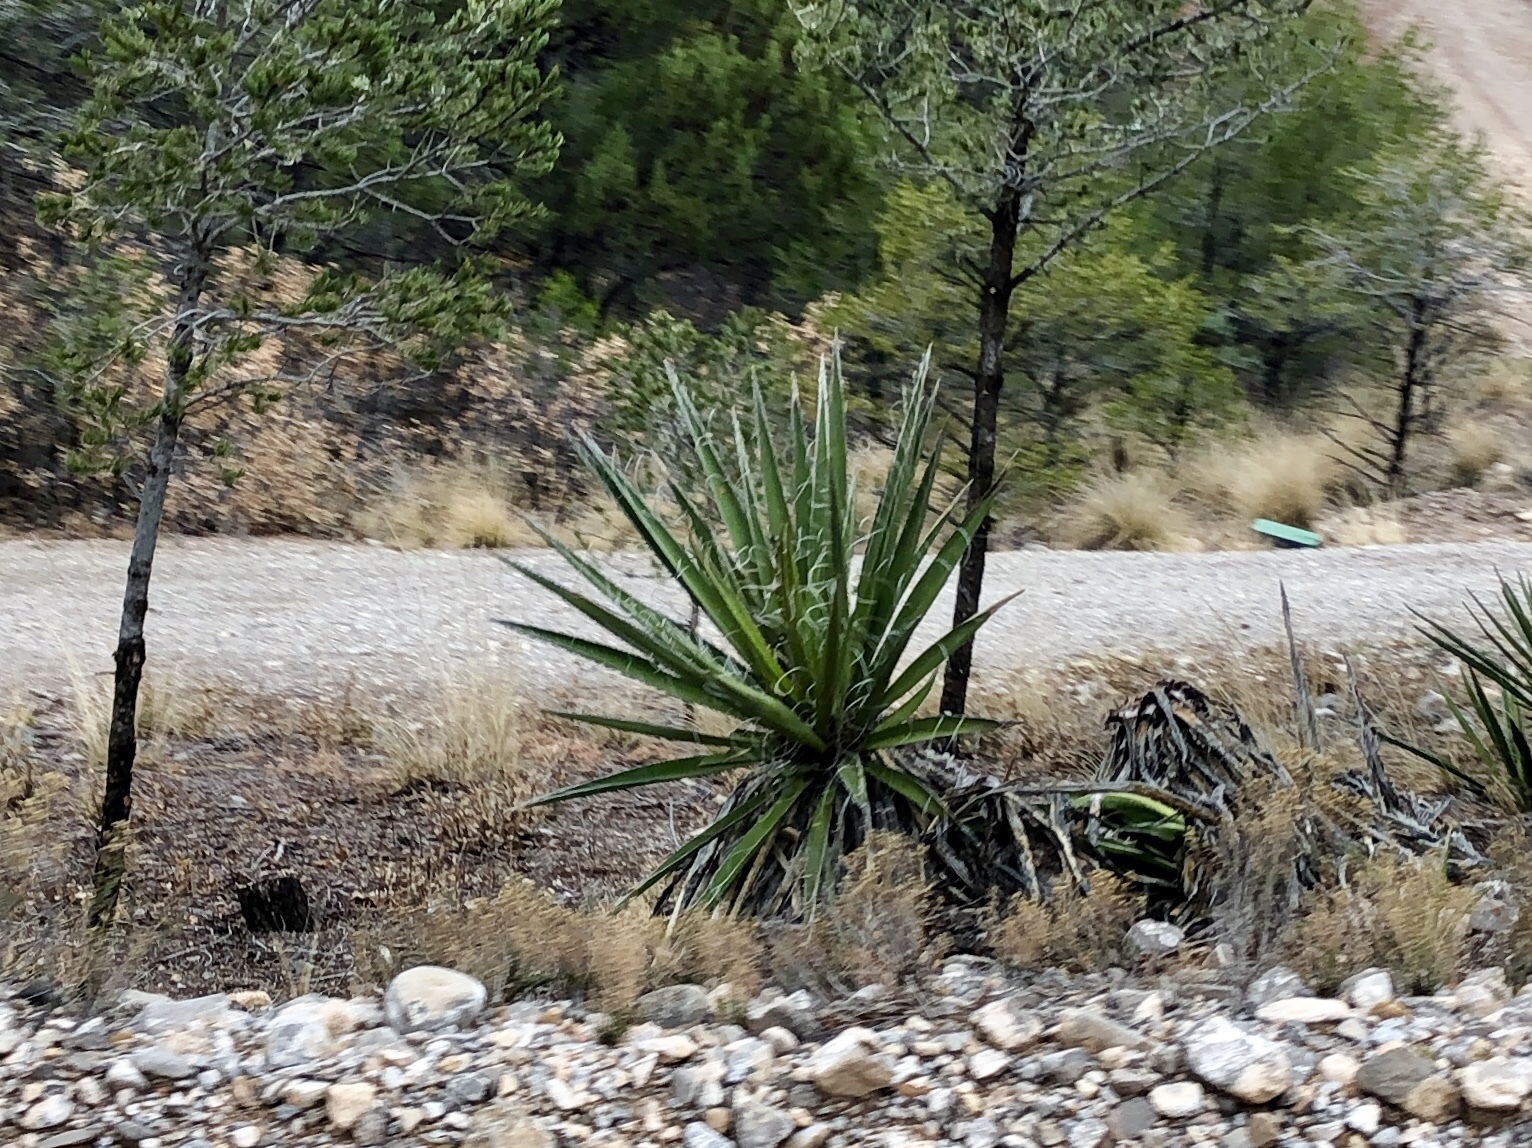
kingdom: Plantae
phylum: Tracheophyta
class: Liliopsida
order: Asparagales
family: Asparagaceae
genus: Yucca
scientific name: Yucca baccata
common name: Banana yucca
